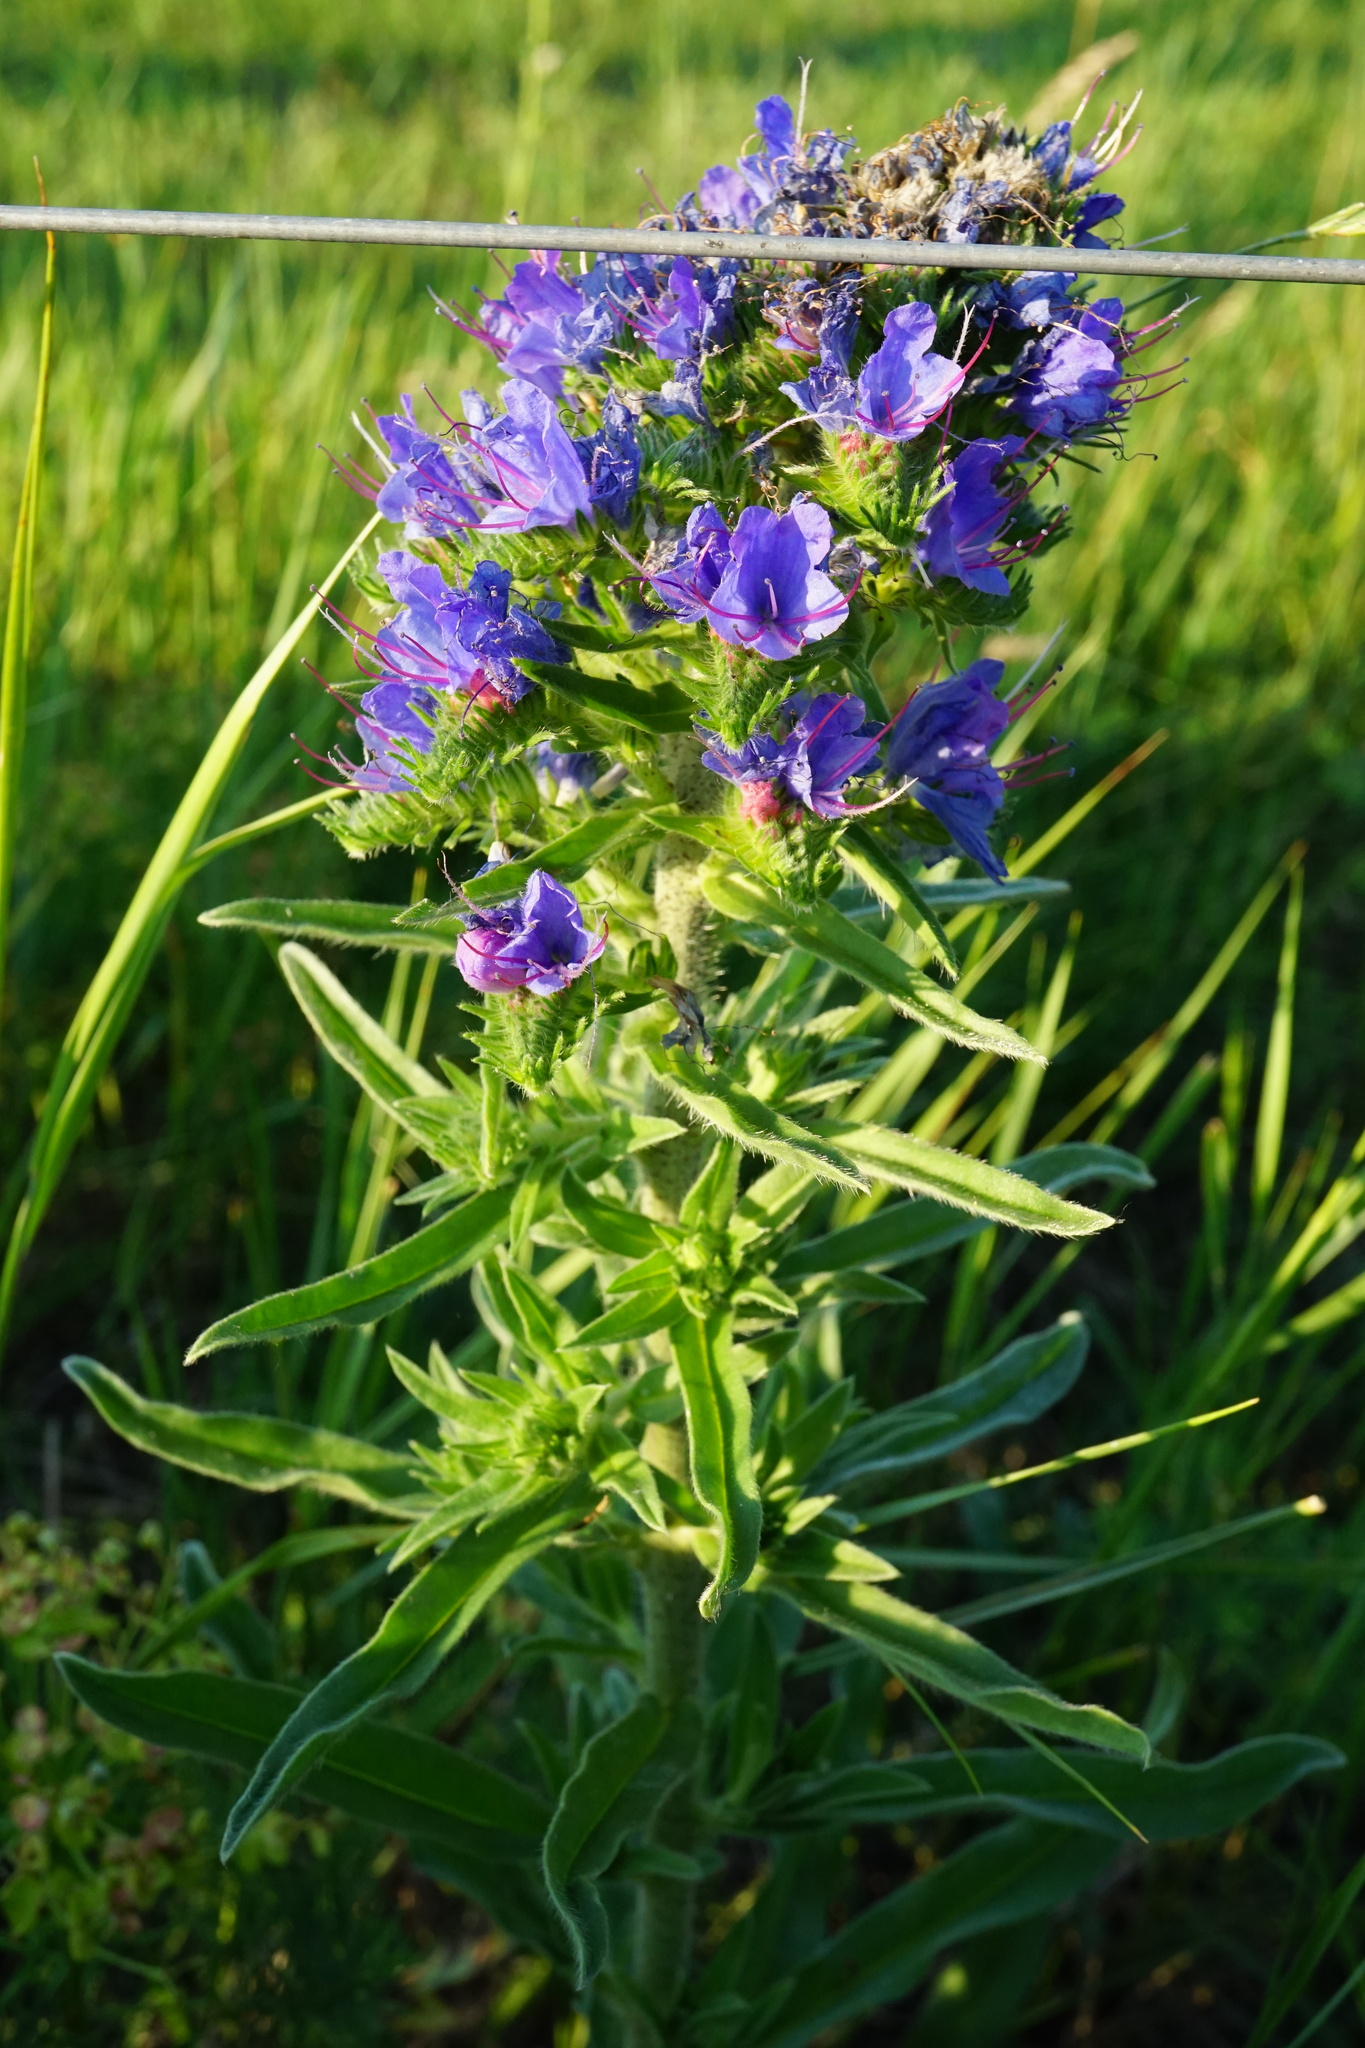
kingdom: Plantae
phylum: Tracheophyta
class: Magnoliopsida
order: Boraginales
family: Boraginaceae
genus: Echium
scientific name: Echium vulgare
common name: Common viper's bugloss
